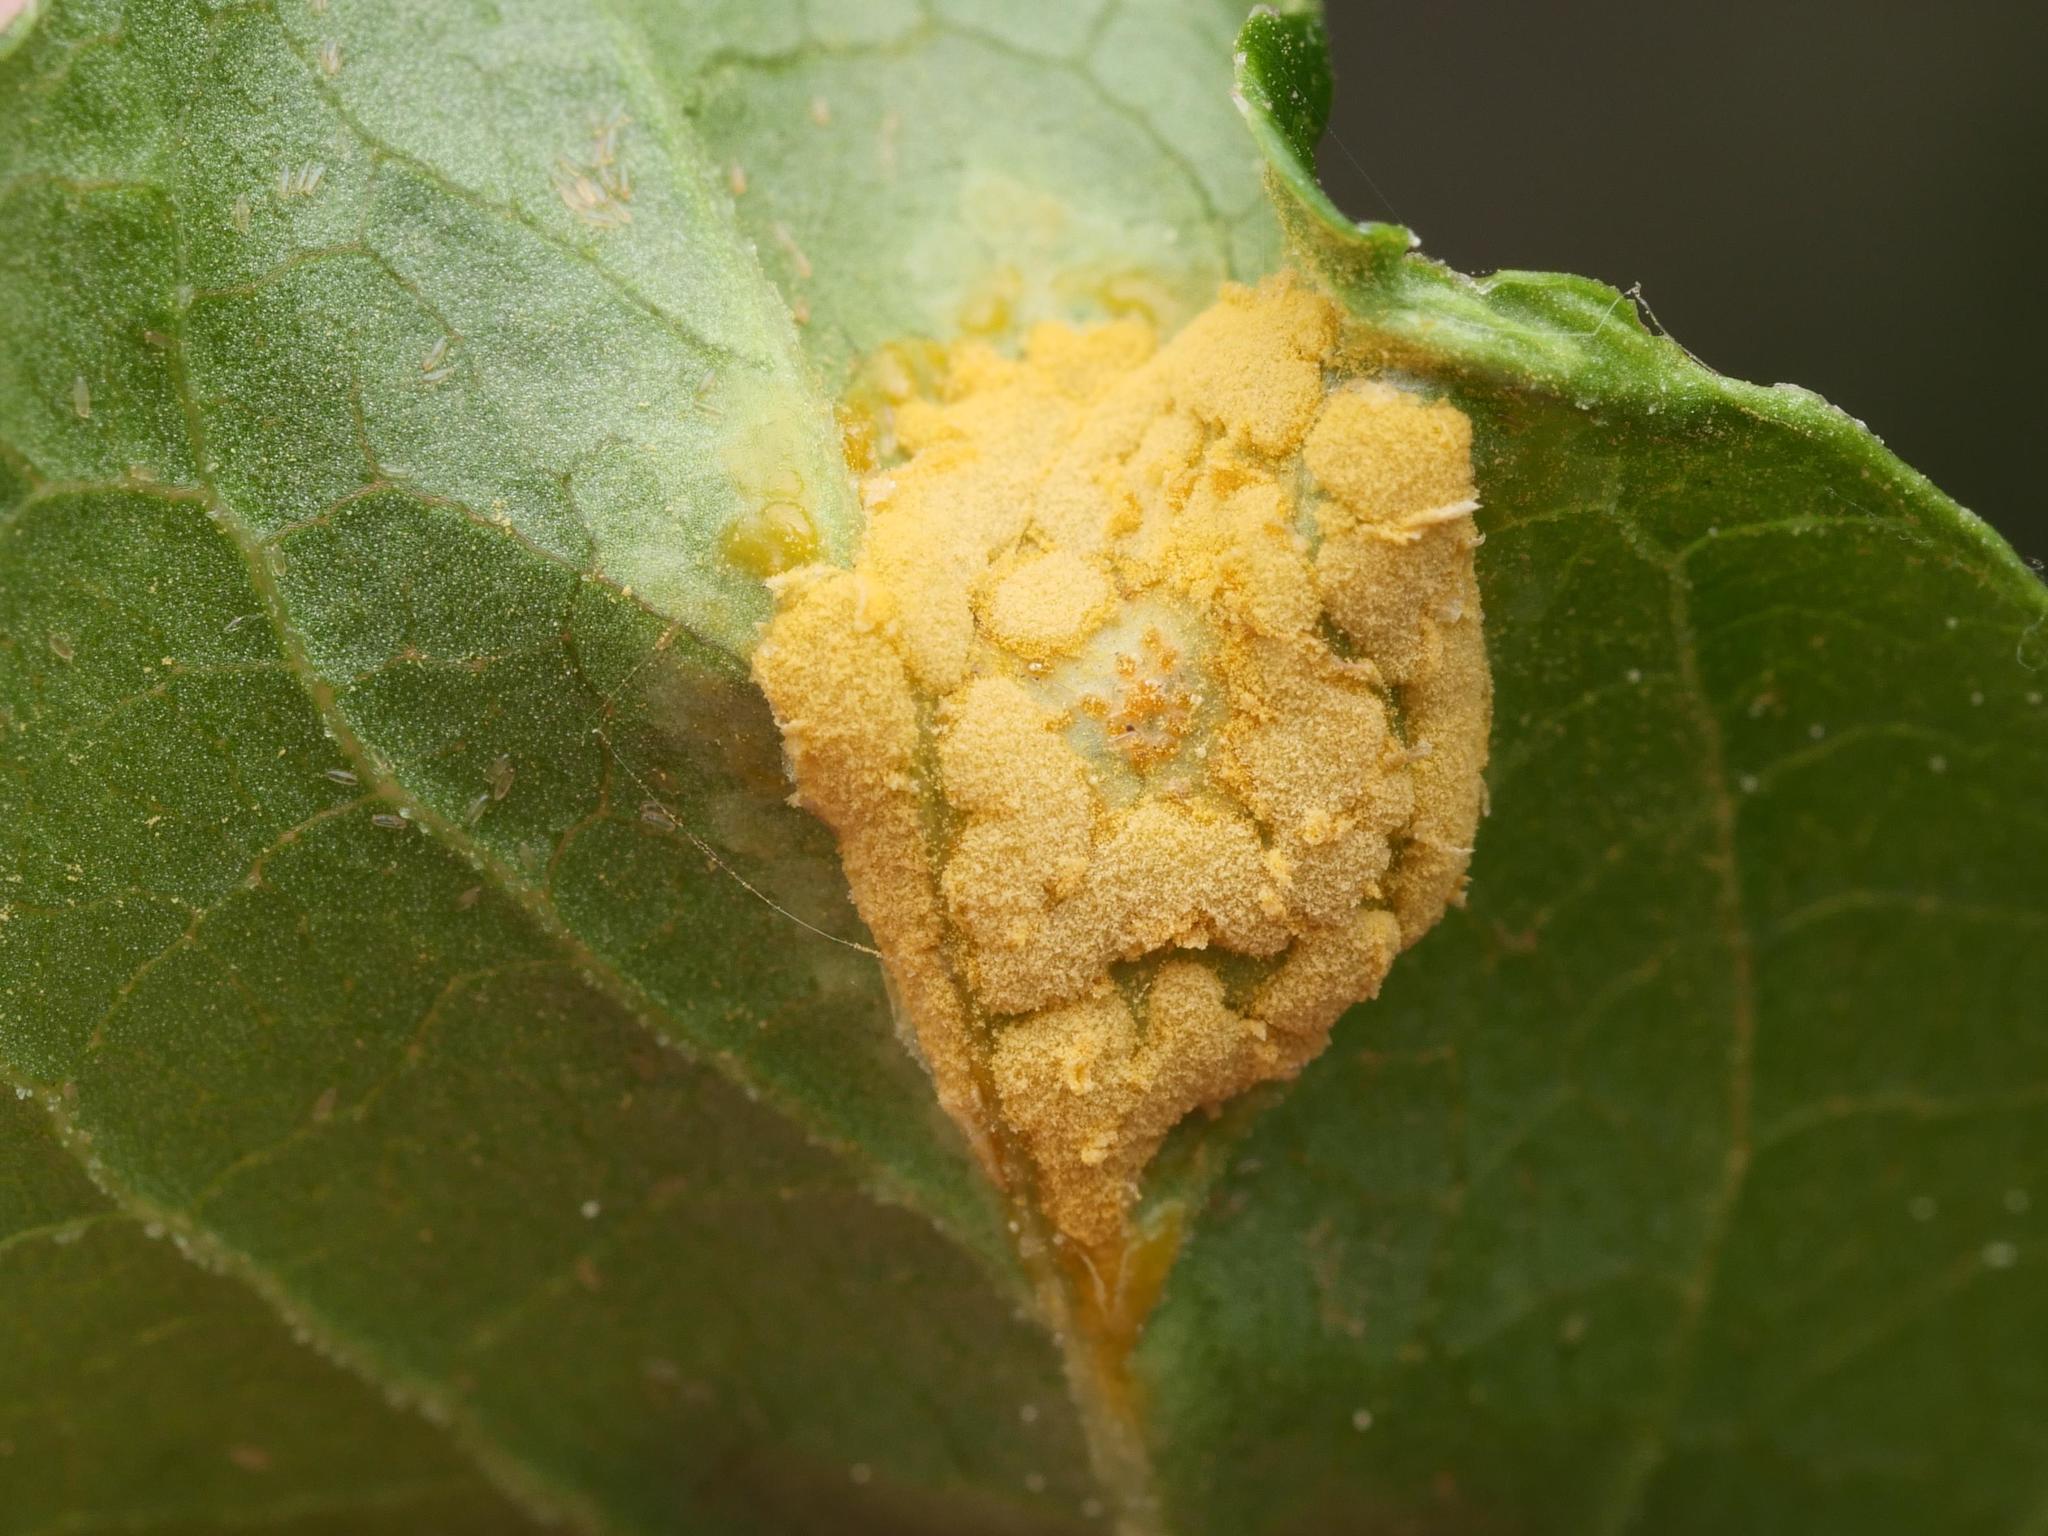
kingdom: Fungi
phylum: Basidiomycota
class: Pucciniomycetes
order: Pucciniales
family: Melampsoraceae
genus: Melampsora
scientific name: Melampsora epitea
